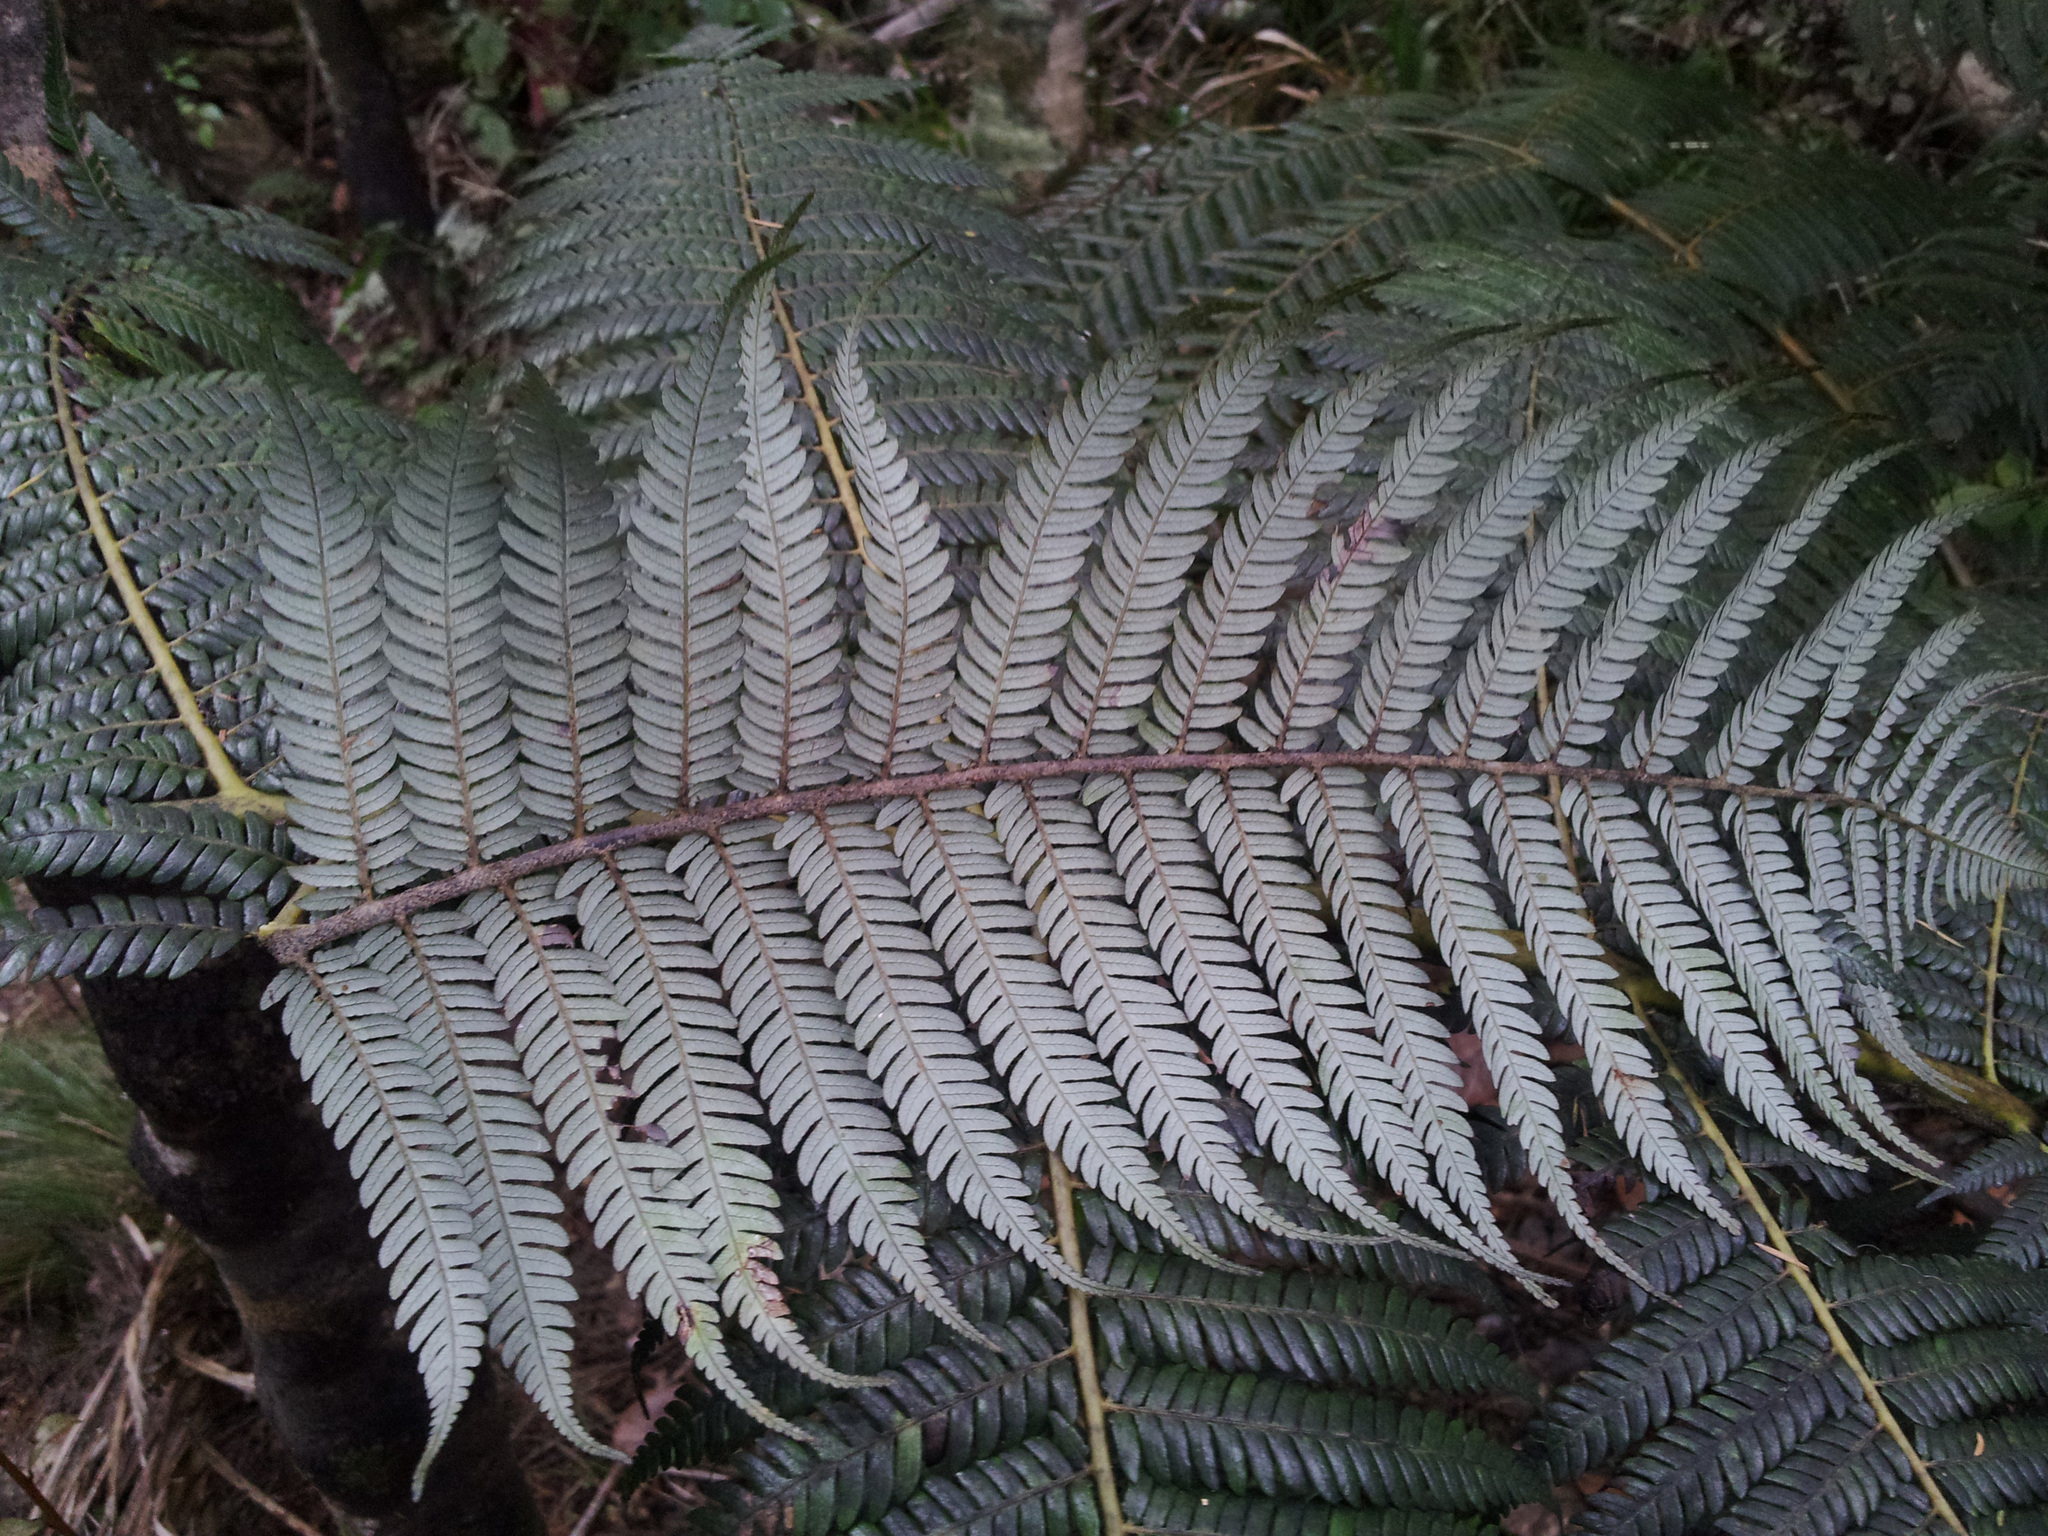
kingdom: Plantae
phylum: Tracheophyta
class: Polypodiopsida
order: Cyatheales
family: Cyatheaceae
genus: Alsophila
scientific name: Alsophila dealbata
